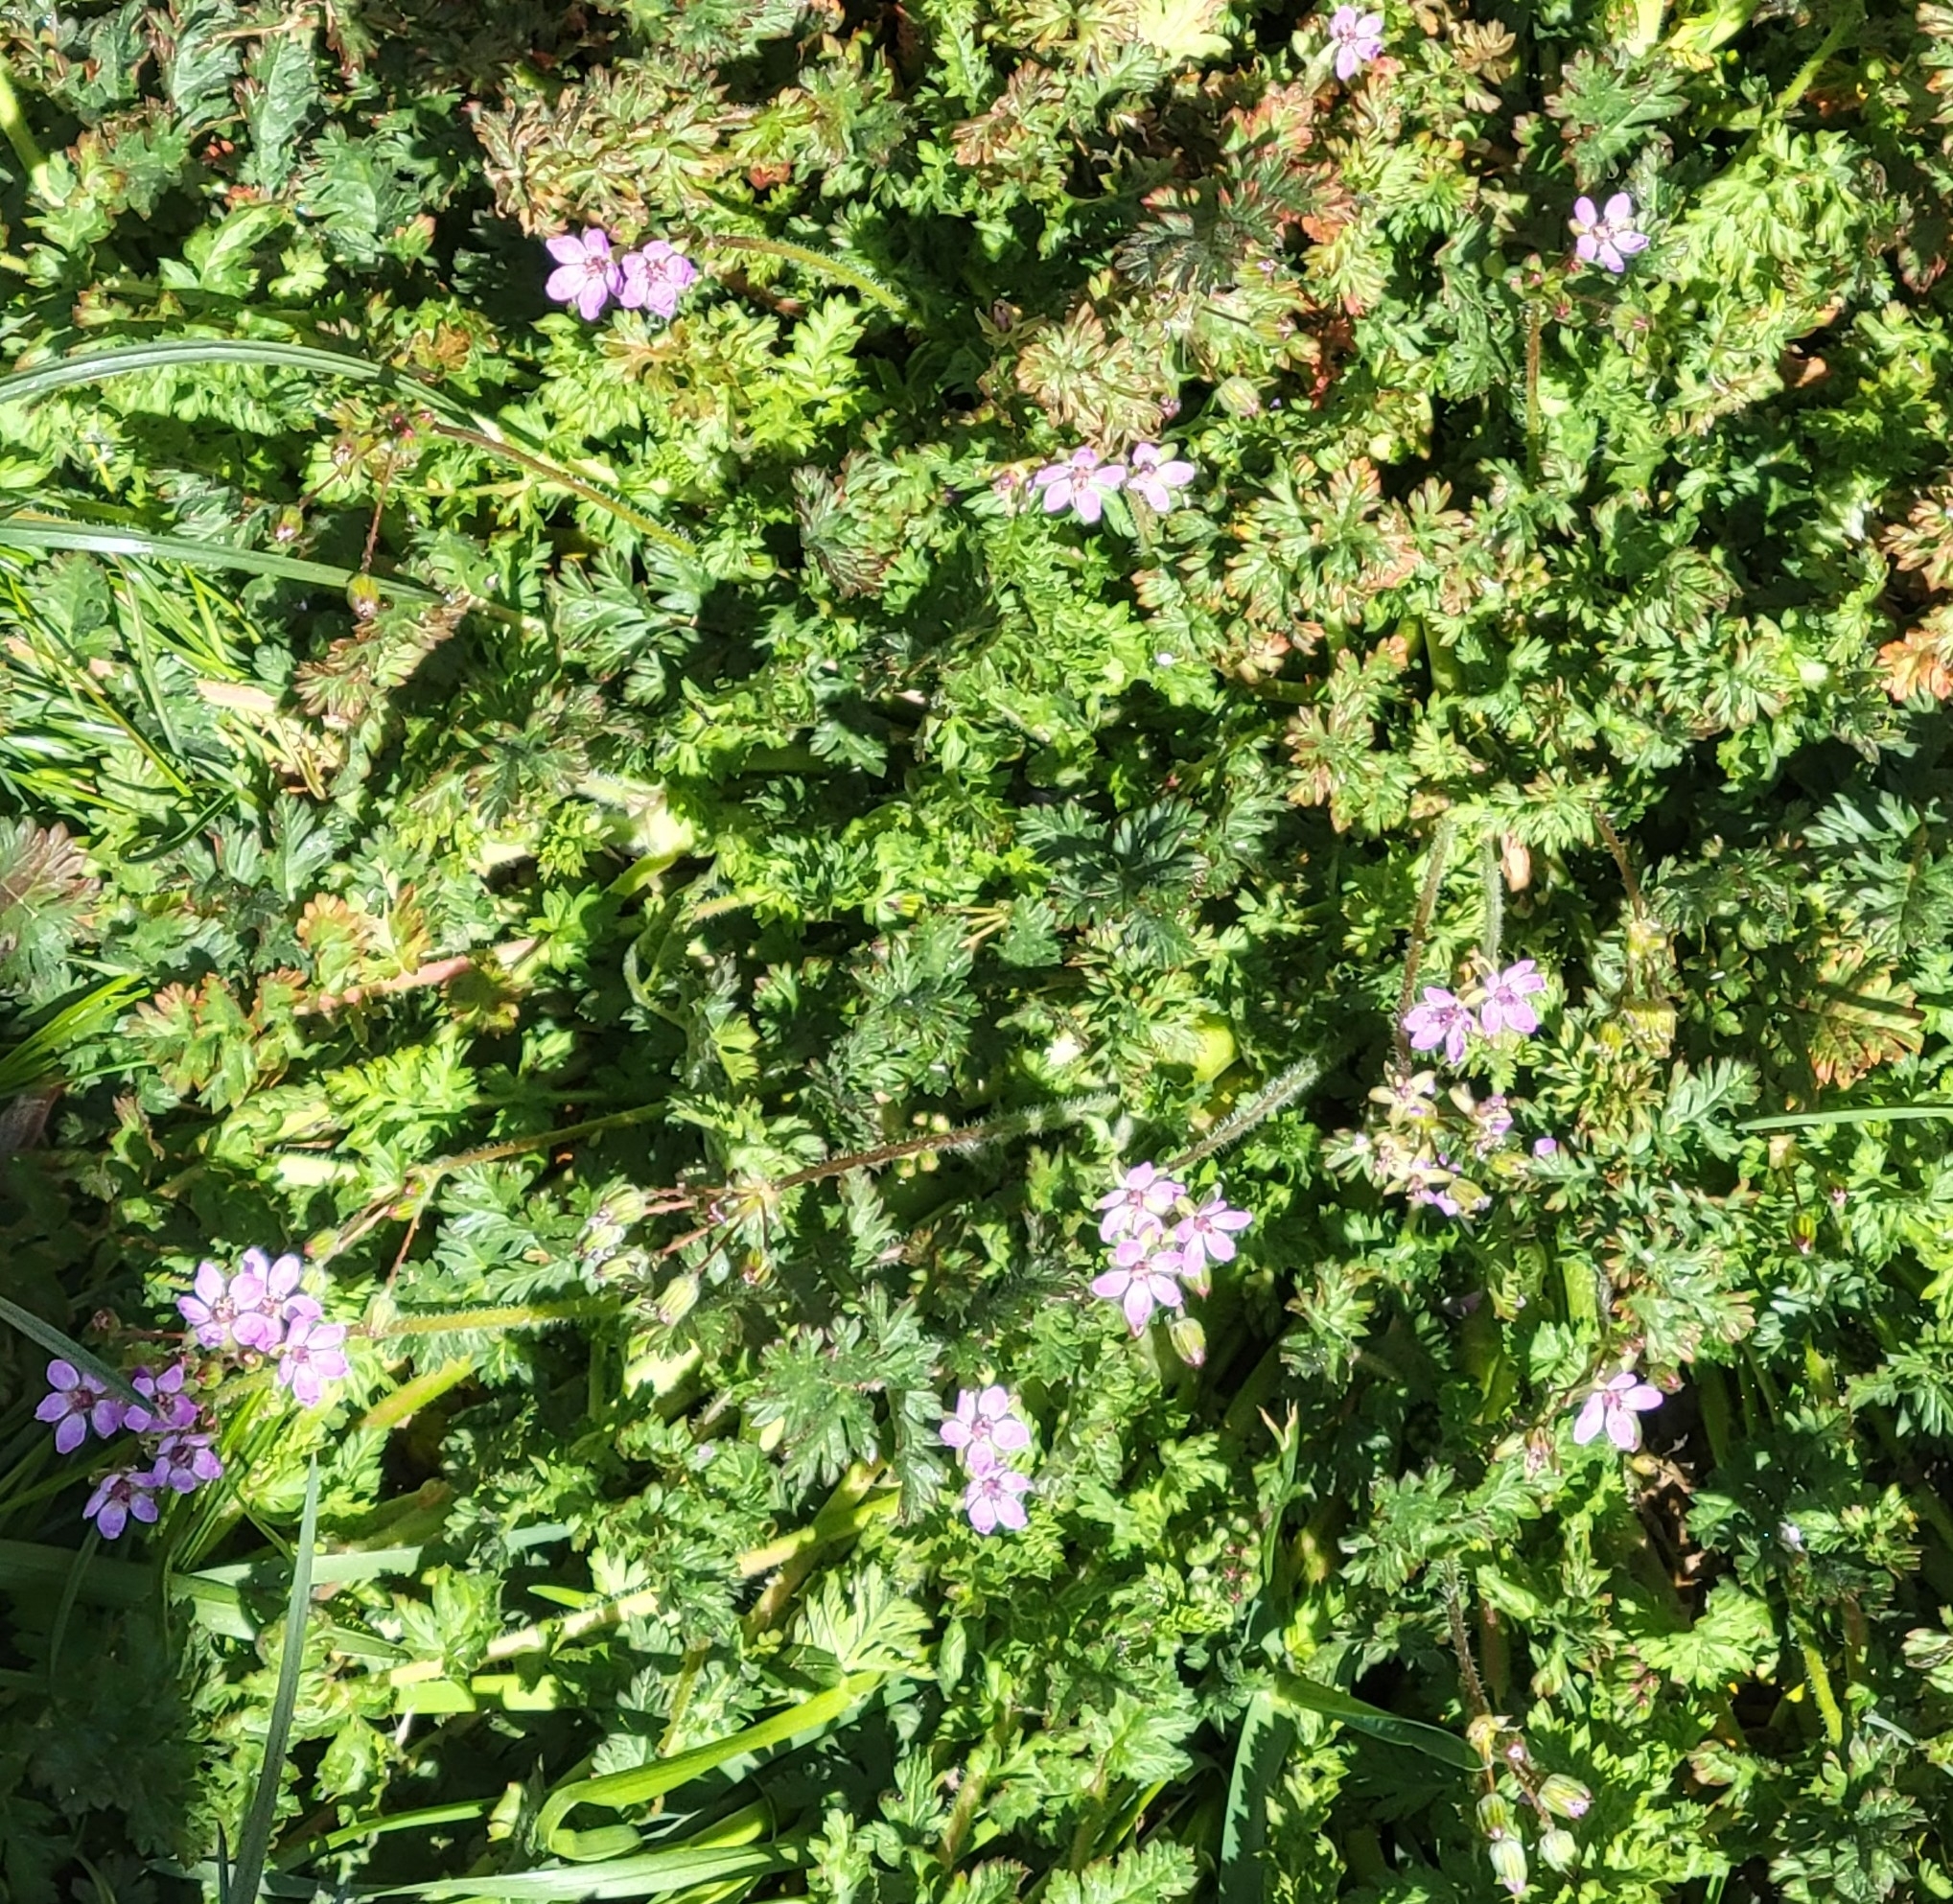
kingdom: Plantae
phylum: Tracheophyta
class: Magnoliopsida
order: Geraniales
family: Geraniaceae
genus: Erodium
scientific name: Erodium cicutarium
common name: Common stork's-bill
